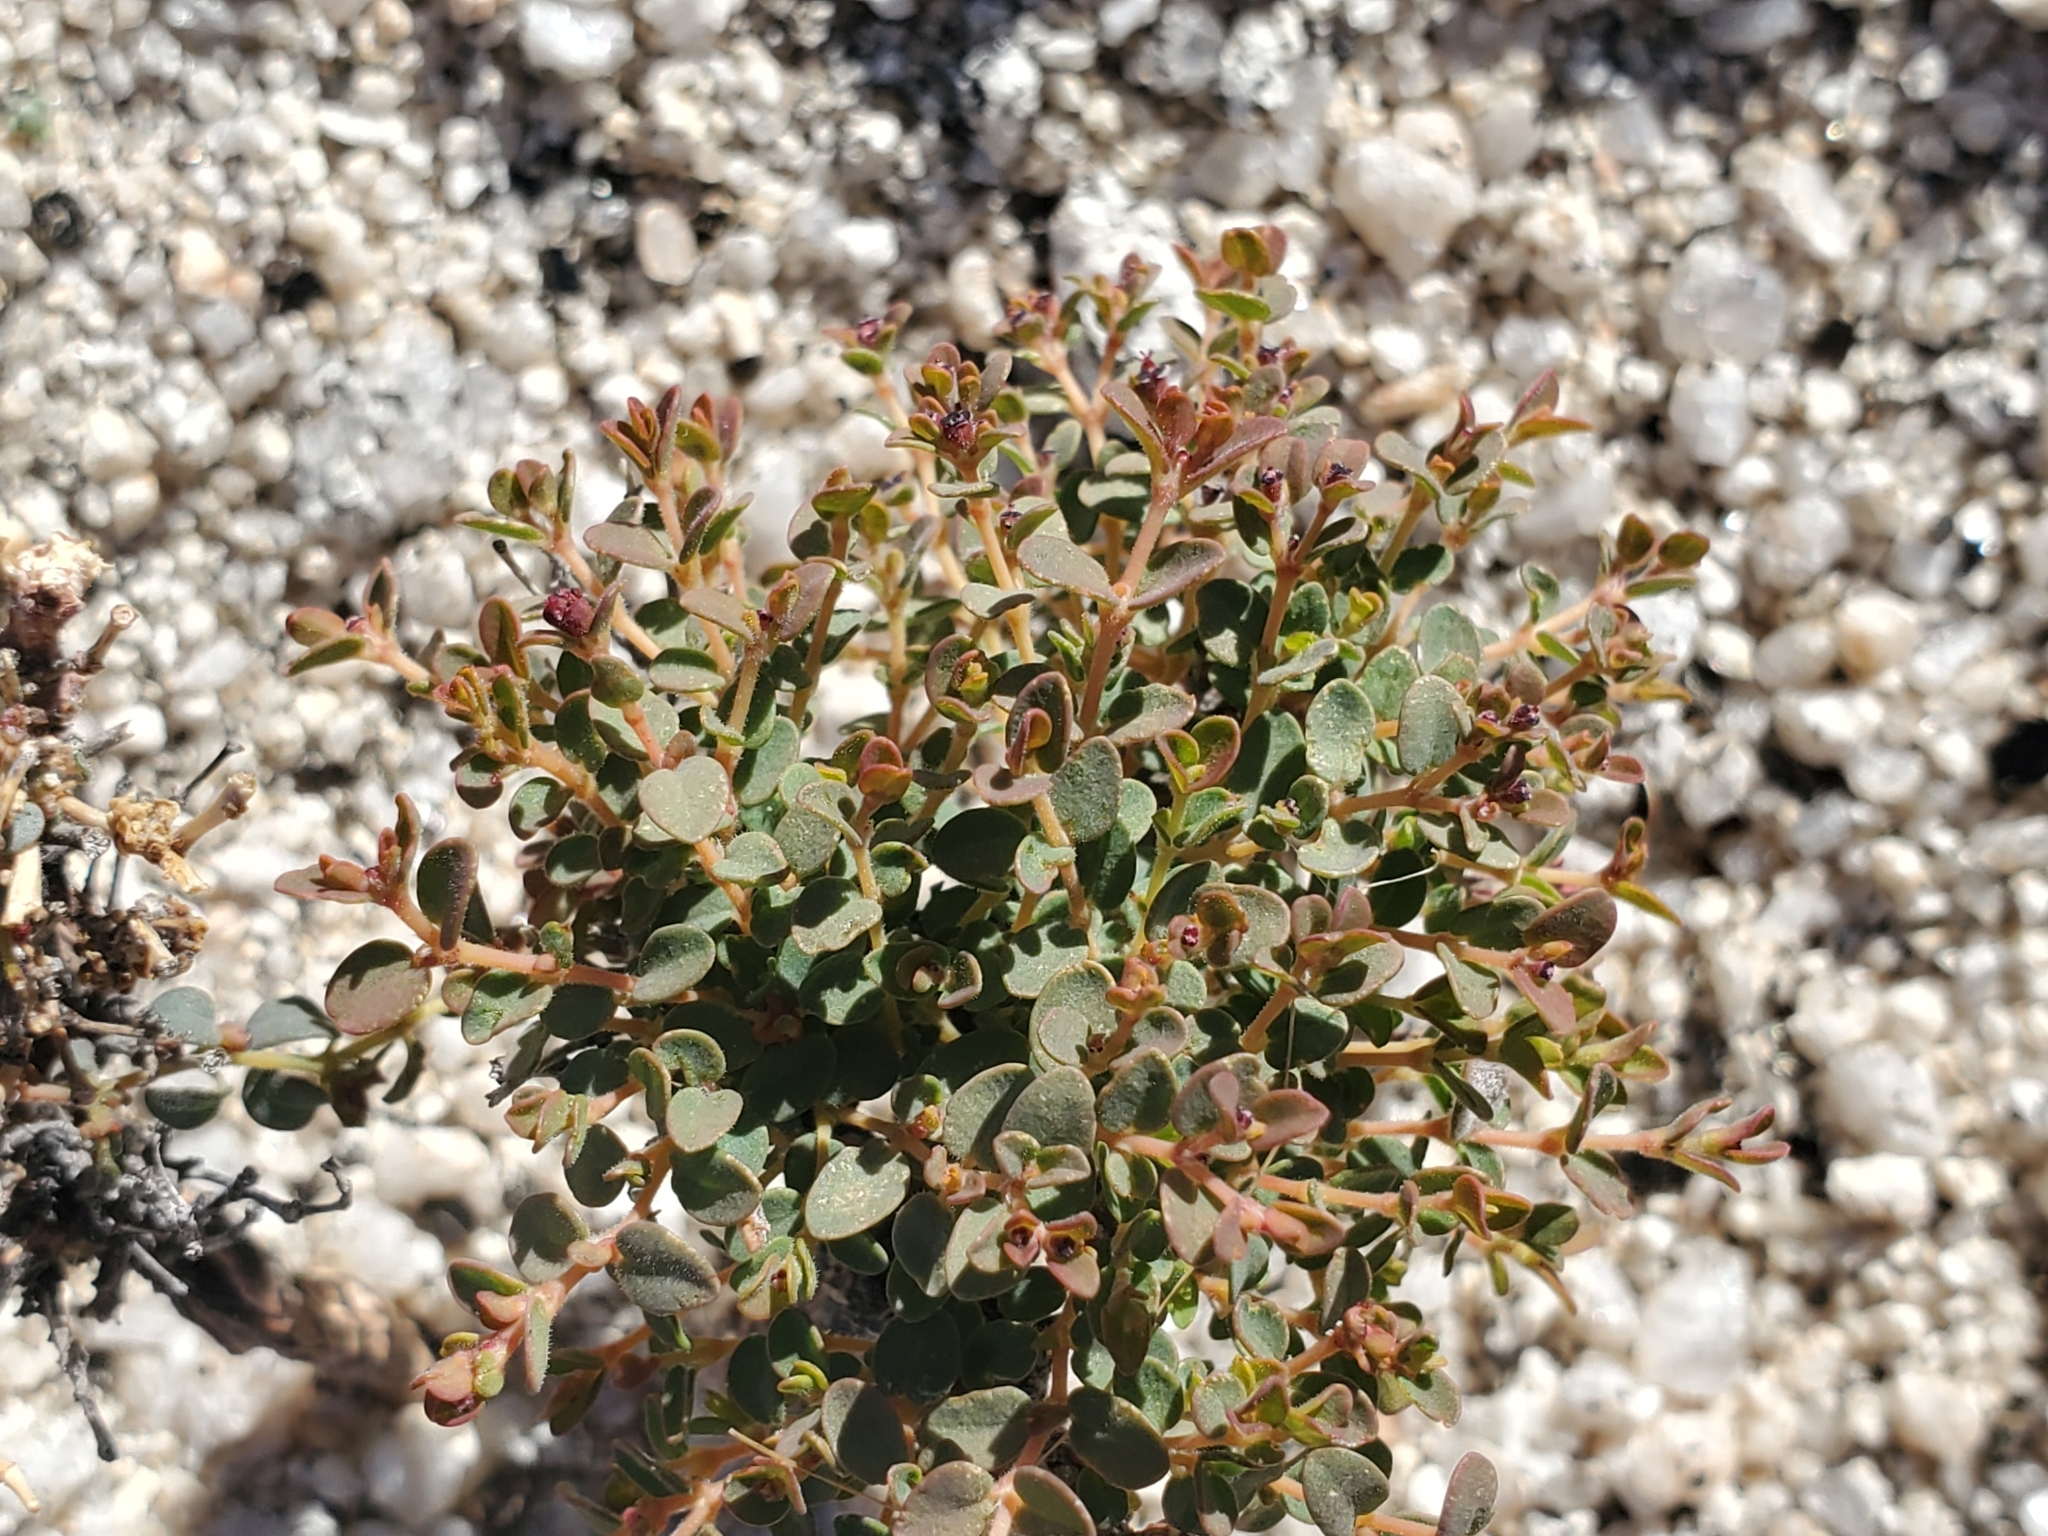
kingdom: Plantae
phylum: Tracheophyta
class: Magnoliopsida
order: Malpighiales
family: Euphorbiaceae
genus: Euphorbia
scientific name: Euphorbia polycarpa
